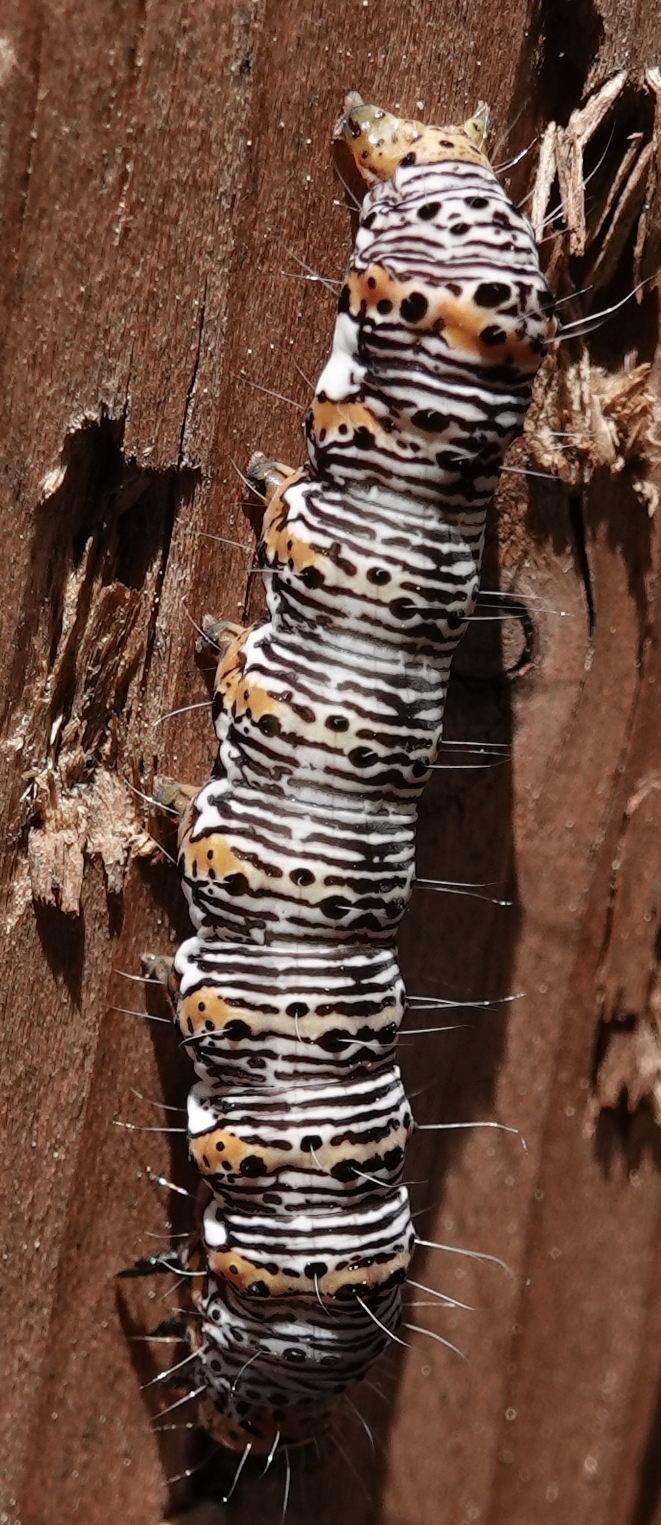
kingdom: Animalia
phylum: Arthropoda
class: Insecta
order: Lepidoptera
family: Noctuidae
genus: Alypia
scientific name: Alypia octomaculata
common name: Eight-spotted forester
